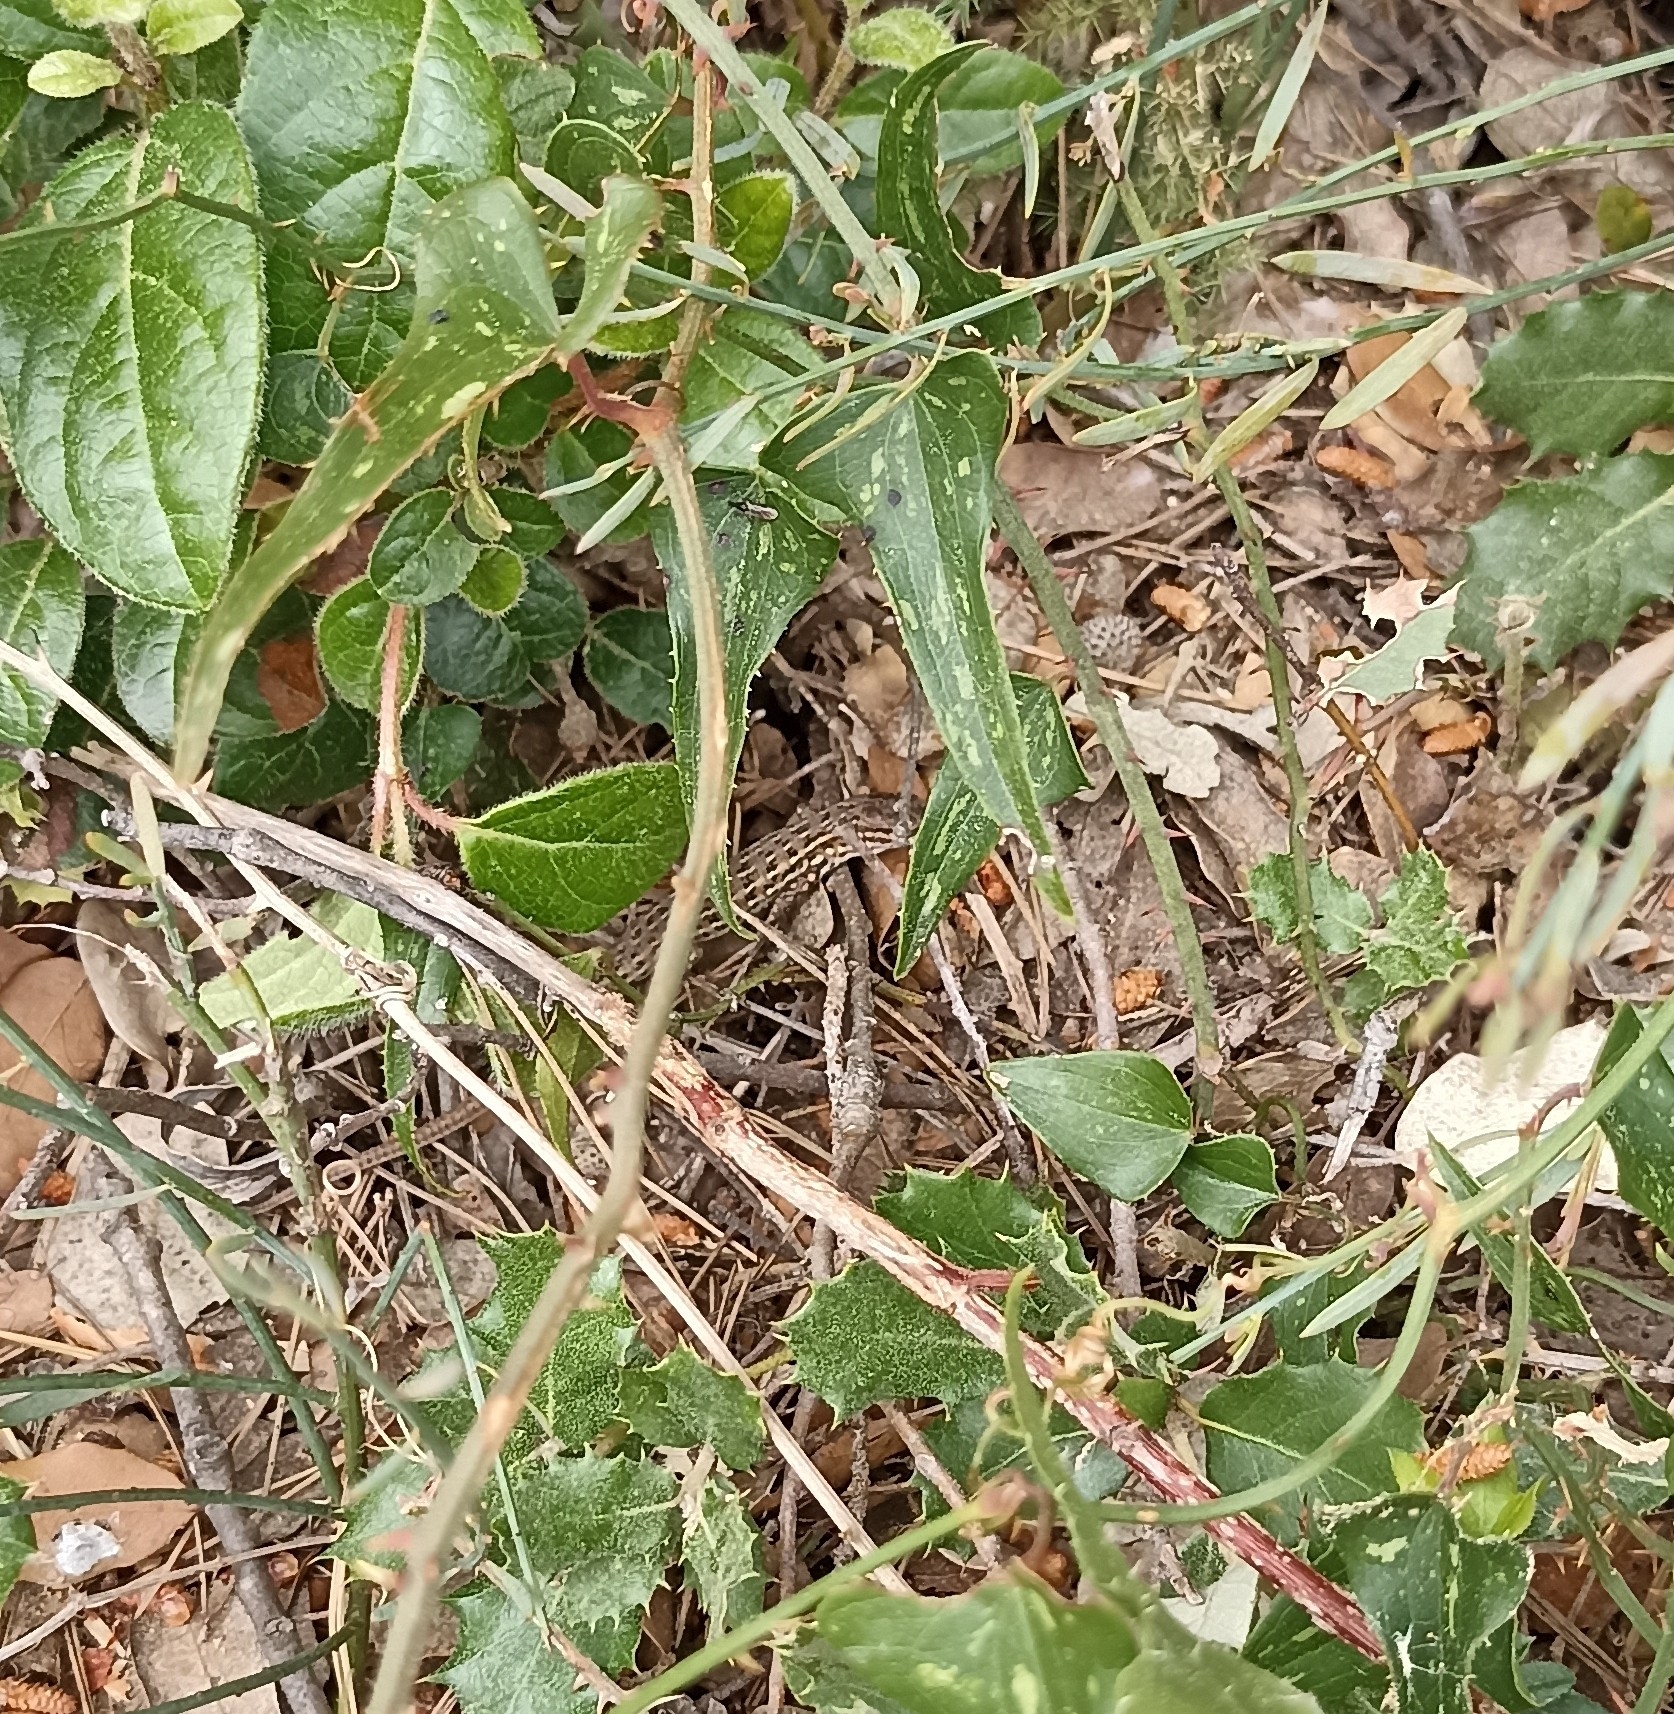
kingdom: Animalia
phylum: Chordata
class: Squamata
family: Lacertidae
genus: Psammodromus
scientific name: Psammodromus edwarsianus
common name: East iberian psammodromus
